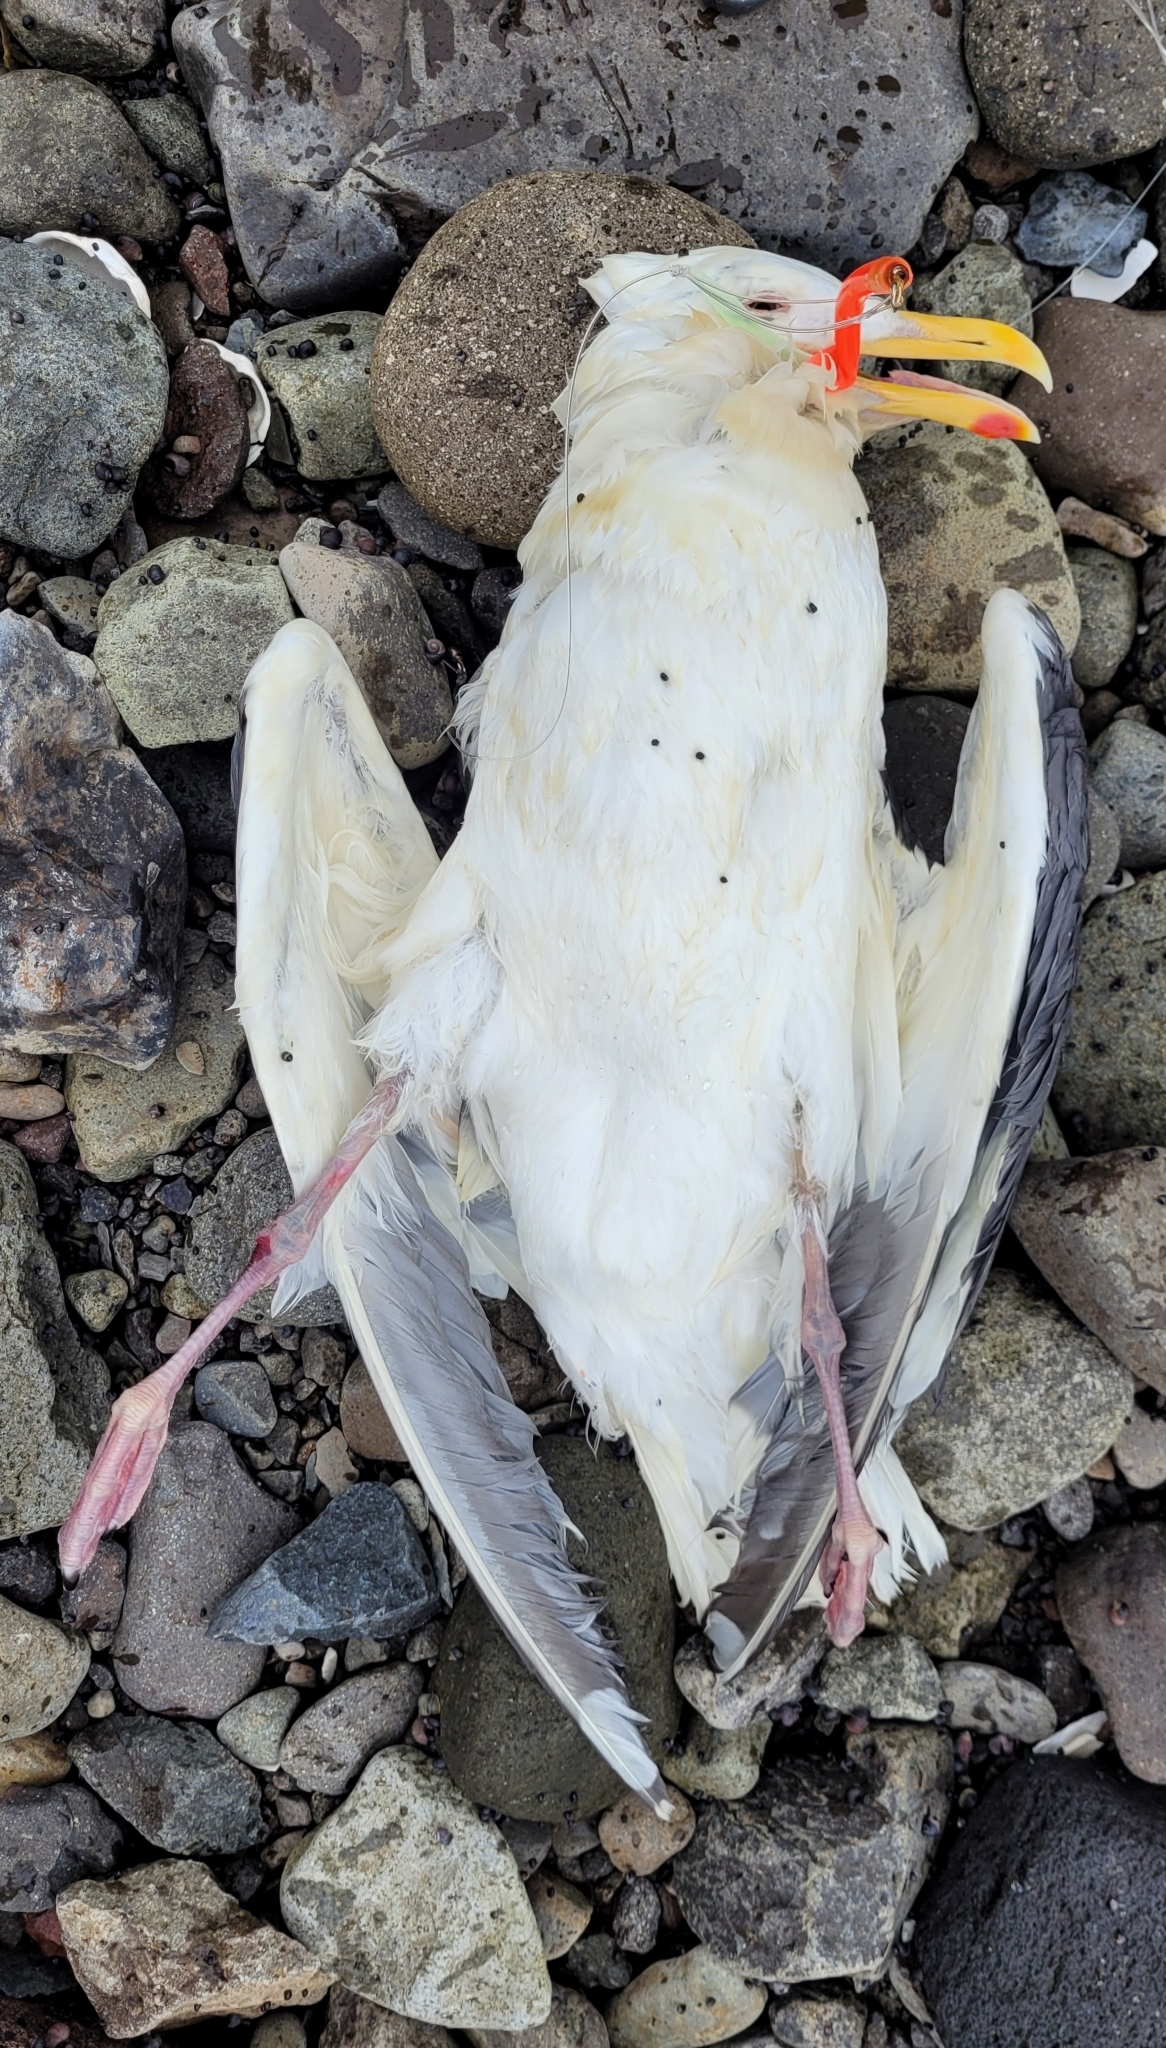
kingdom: Animalia
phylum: Chordata
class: Aves
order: Charadriiformes
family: Laridae
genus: Larus
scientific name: Larus schistisagus
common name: Slaty-backed gull
